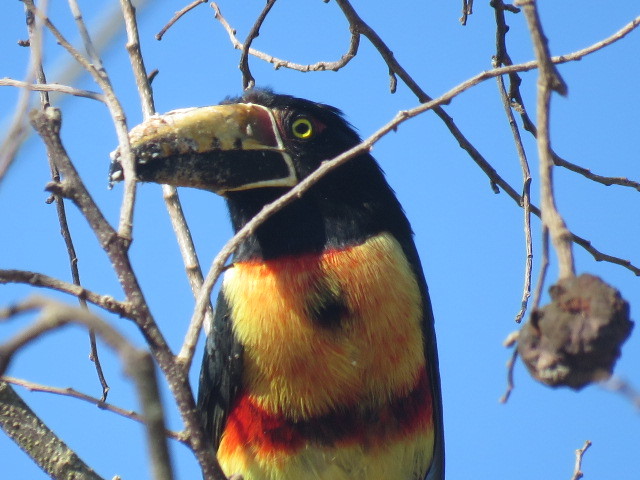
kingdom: Animalia
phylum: Chordata
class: Aves
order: Piciformes
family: Ramphastidae
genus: Pteroglossus
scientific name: Pteroglossus torquatus
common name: Collared aracari
